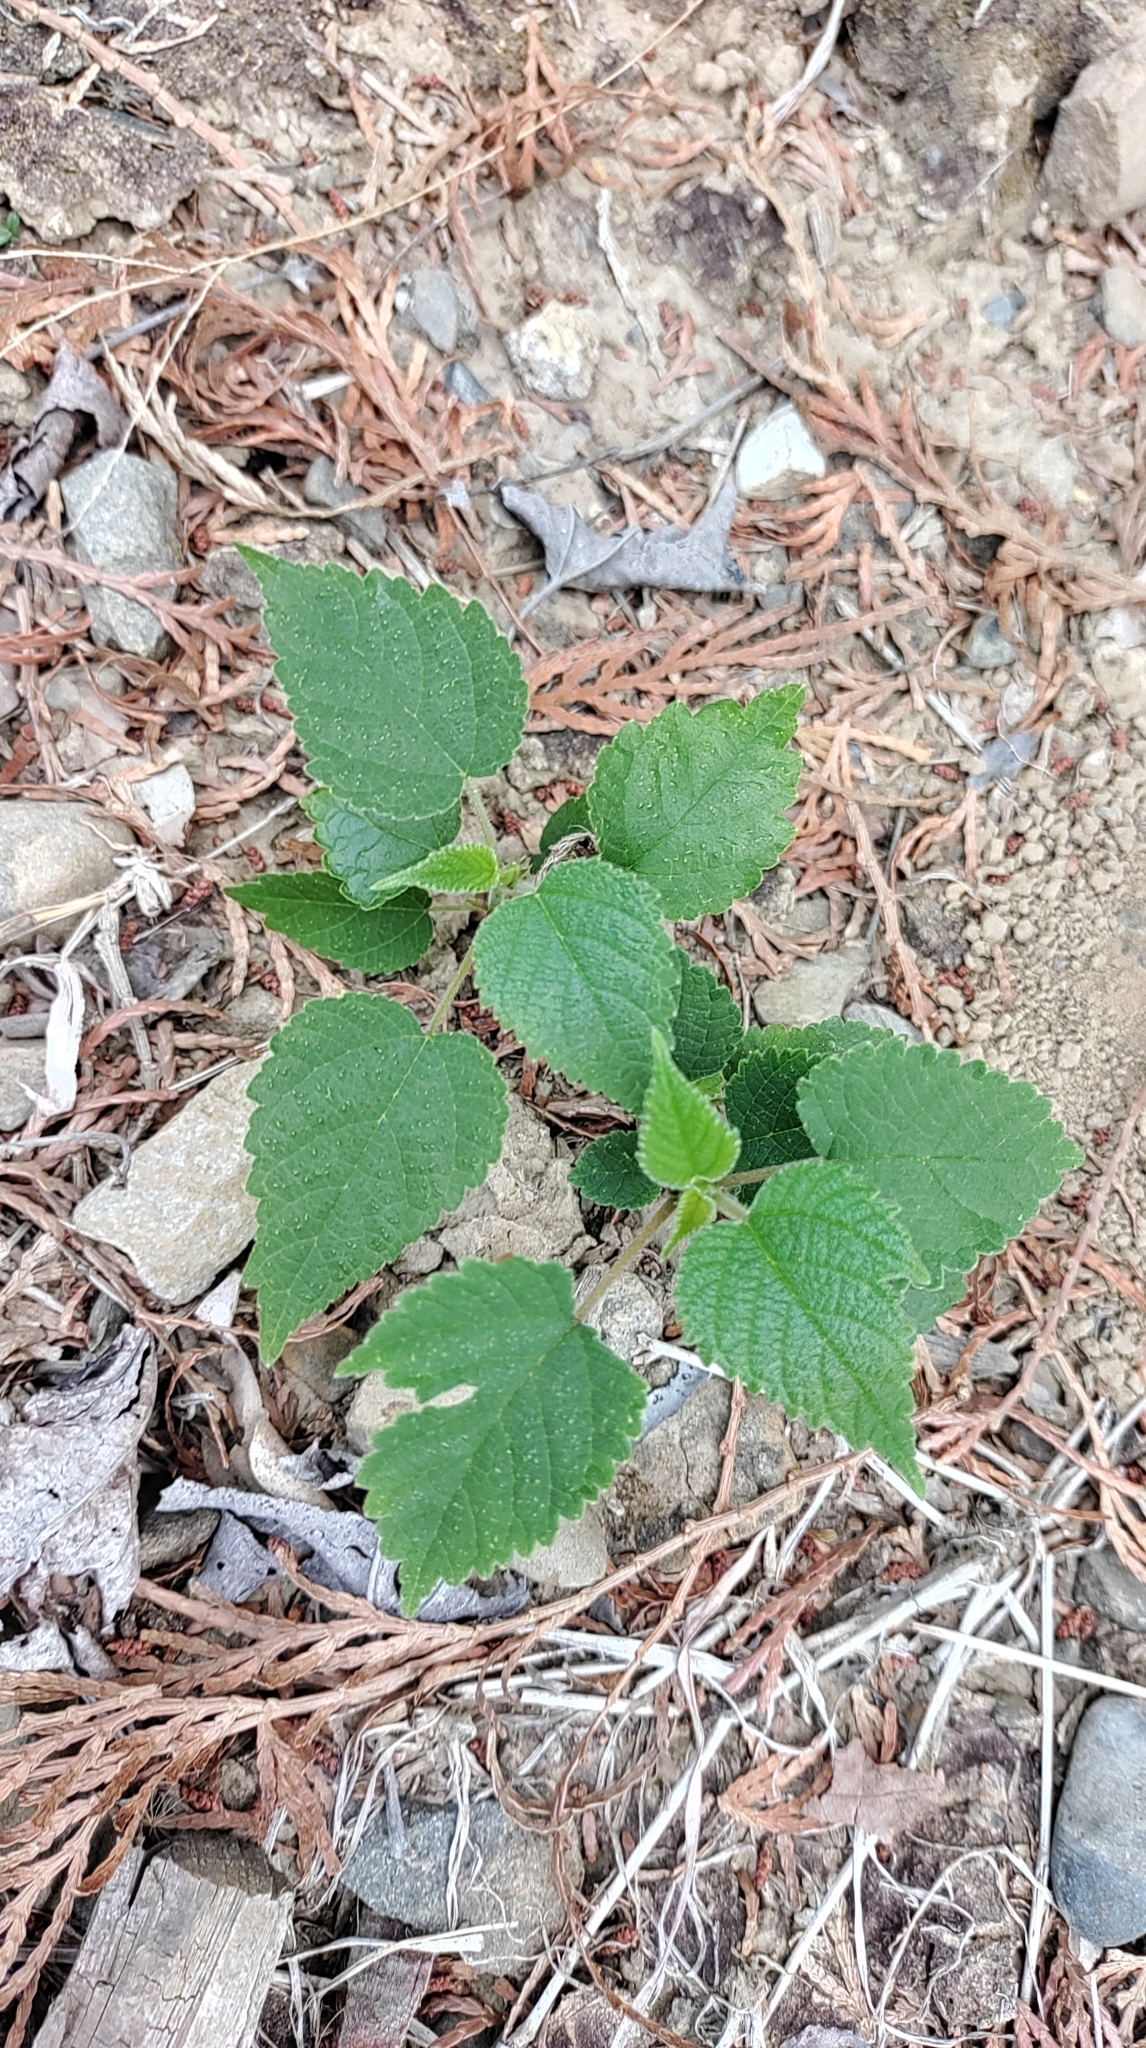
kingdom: Plantae
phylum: Tracheophyta
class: Magnoliopsida
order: Rosales
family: Moraceae
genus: Broussonetia
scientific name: Broussonetia papyrifera
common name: Paper mulberry
